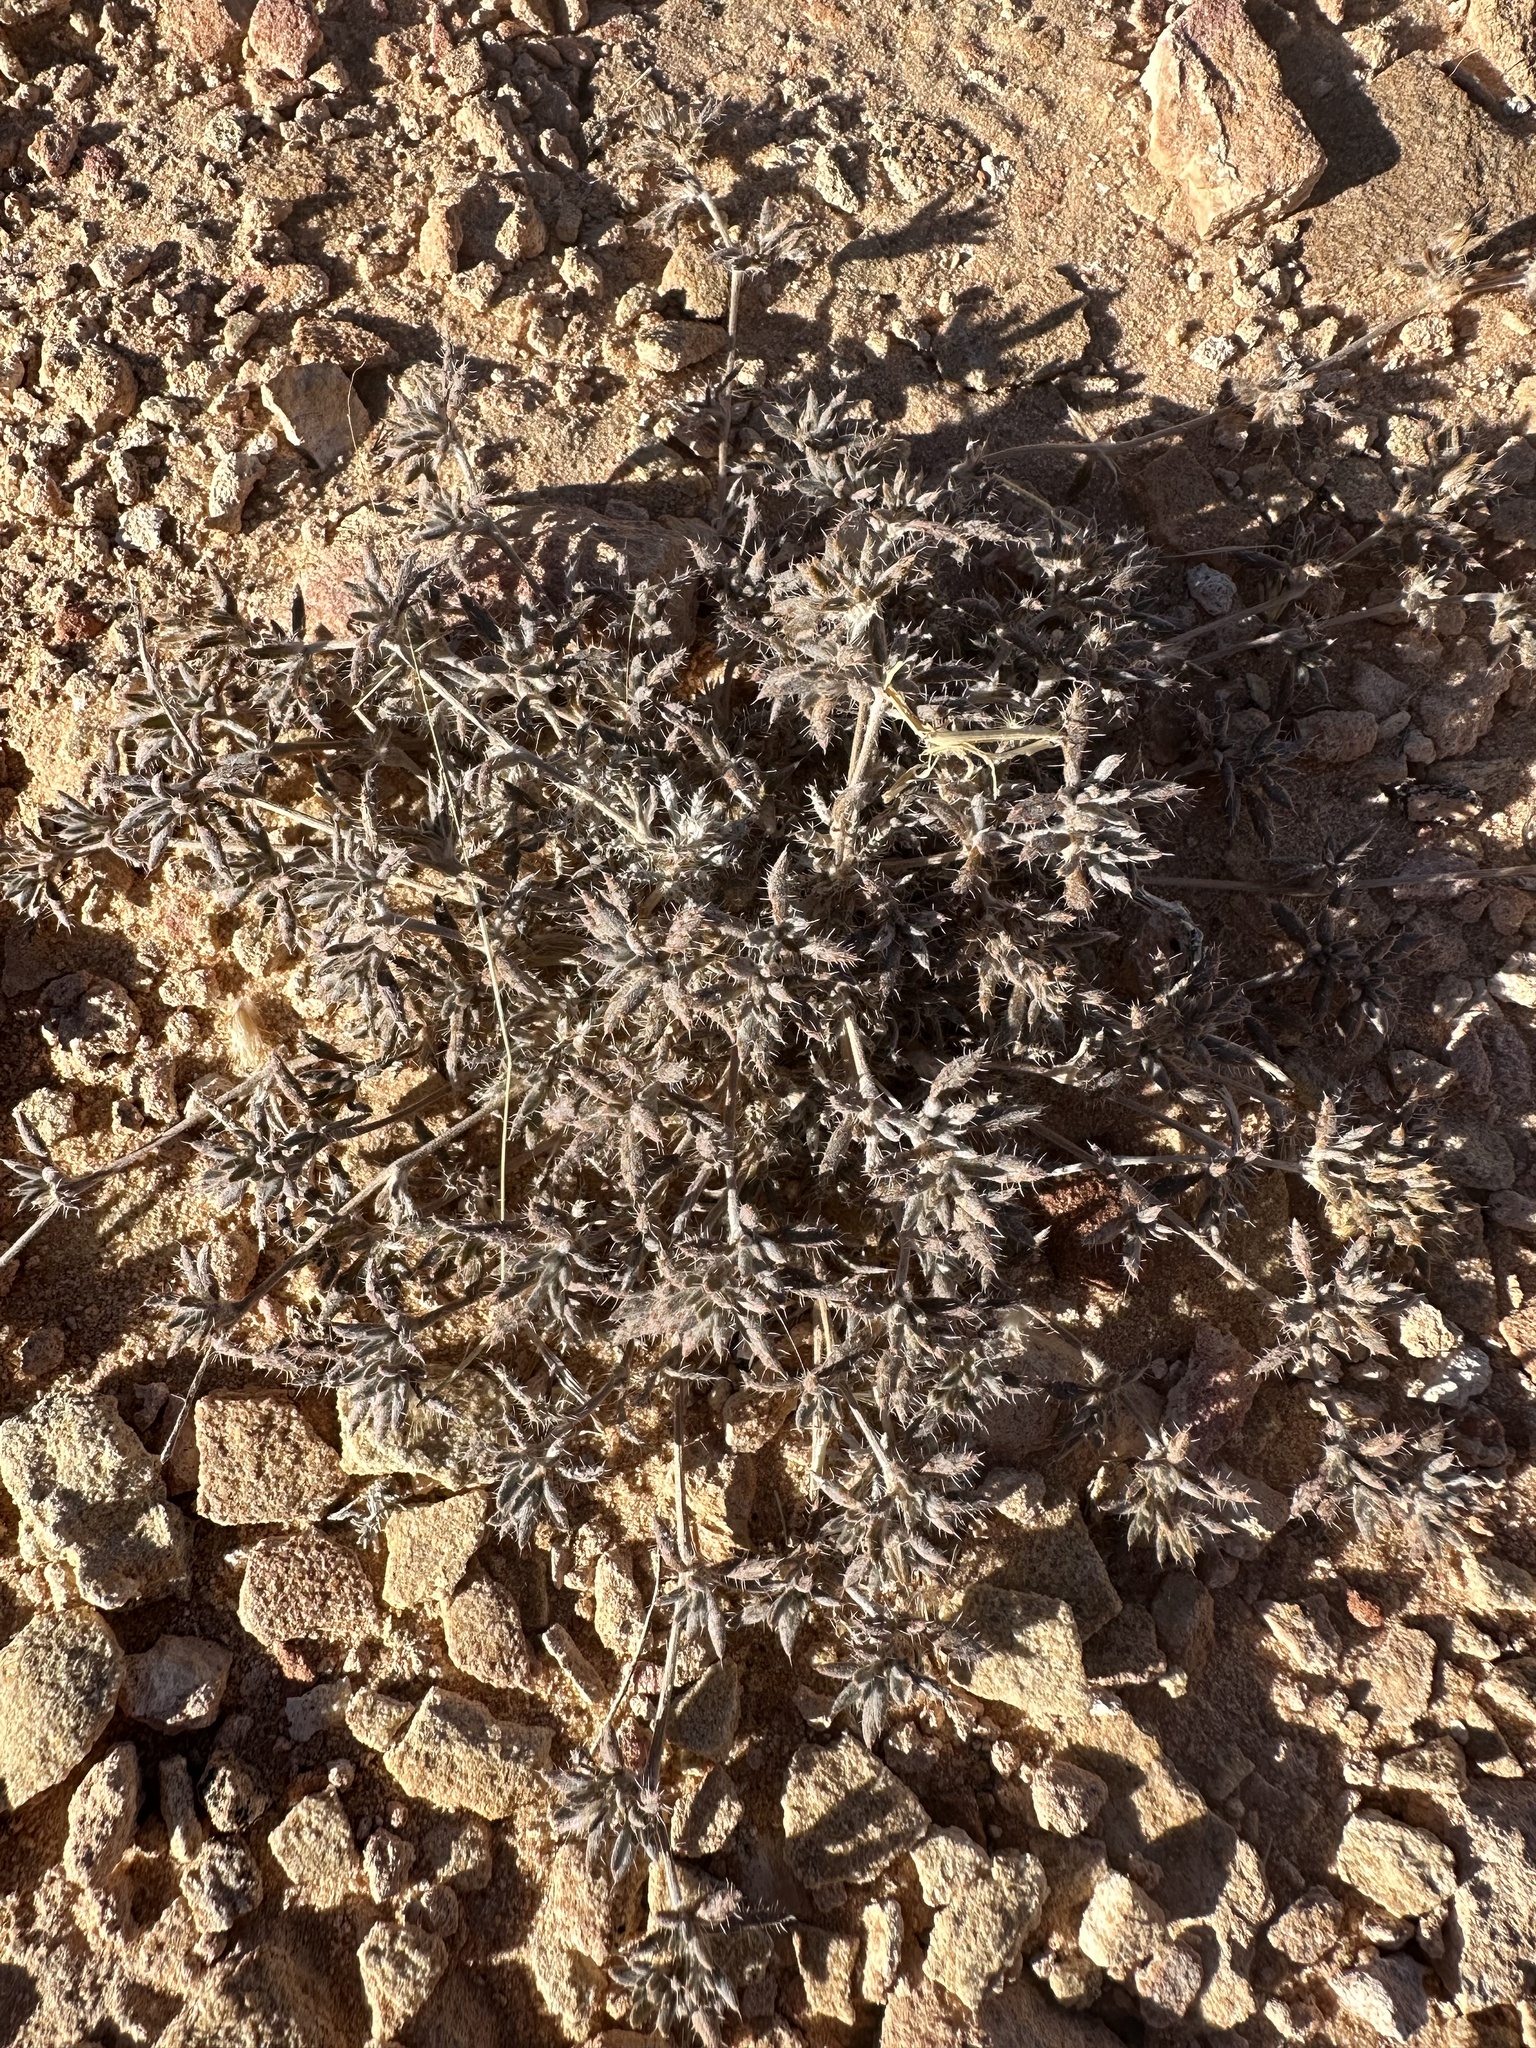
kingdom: Plantae
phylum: Tracheophyta
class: Magnoliopsida
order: Boraginales
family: Ehretiaceae
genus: Tiquilia
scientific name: Tiquilia latior
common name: Matted tiquilia
